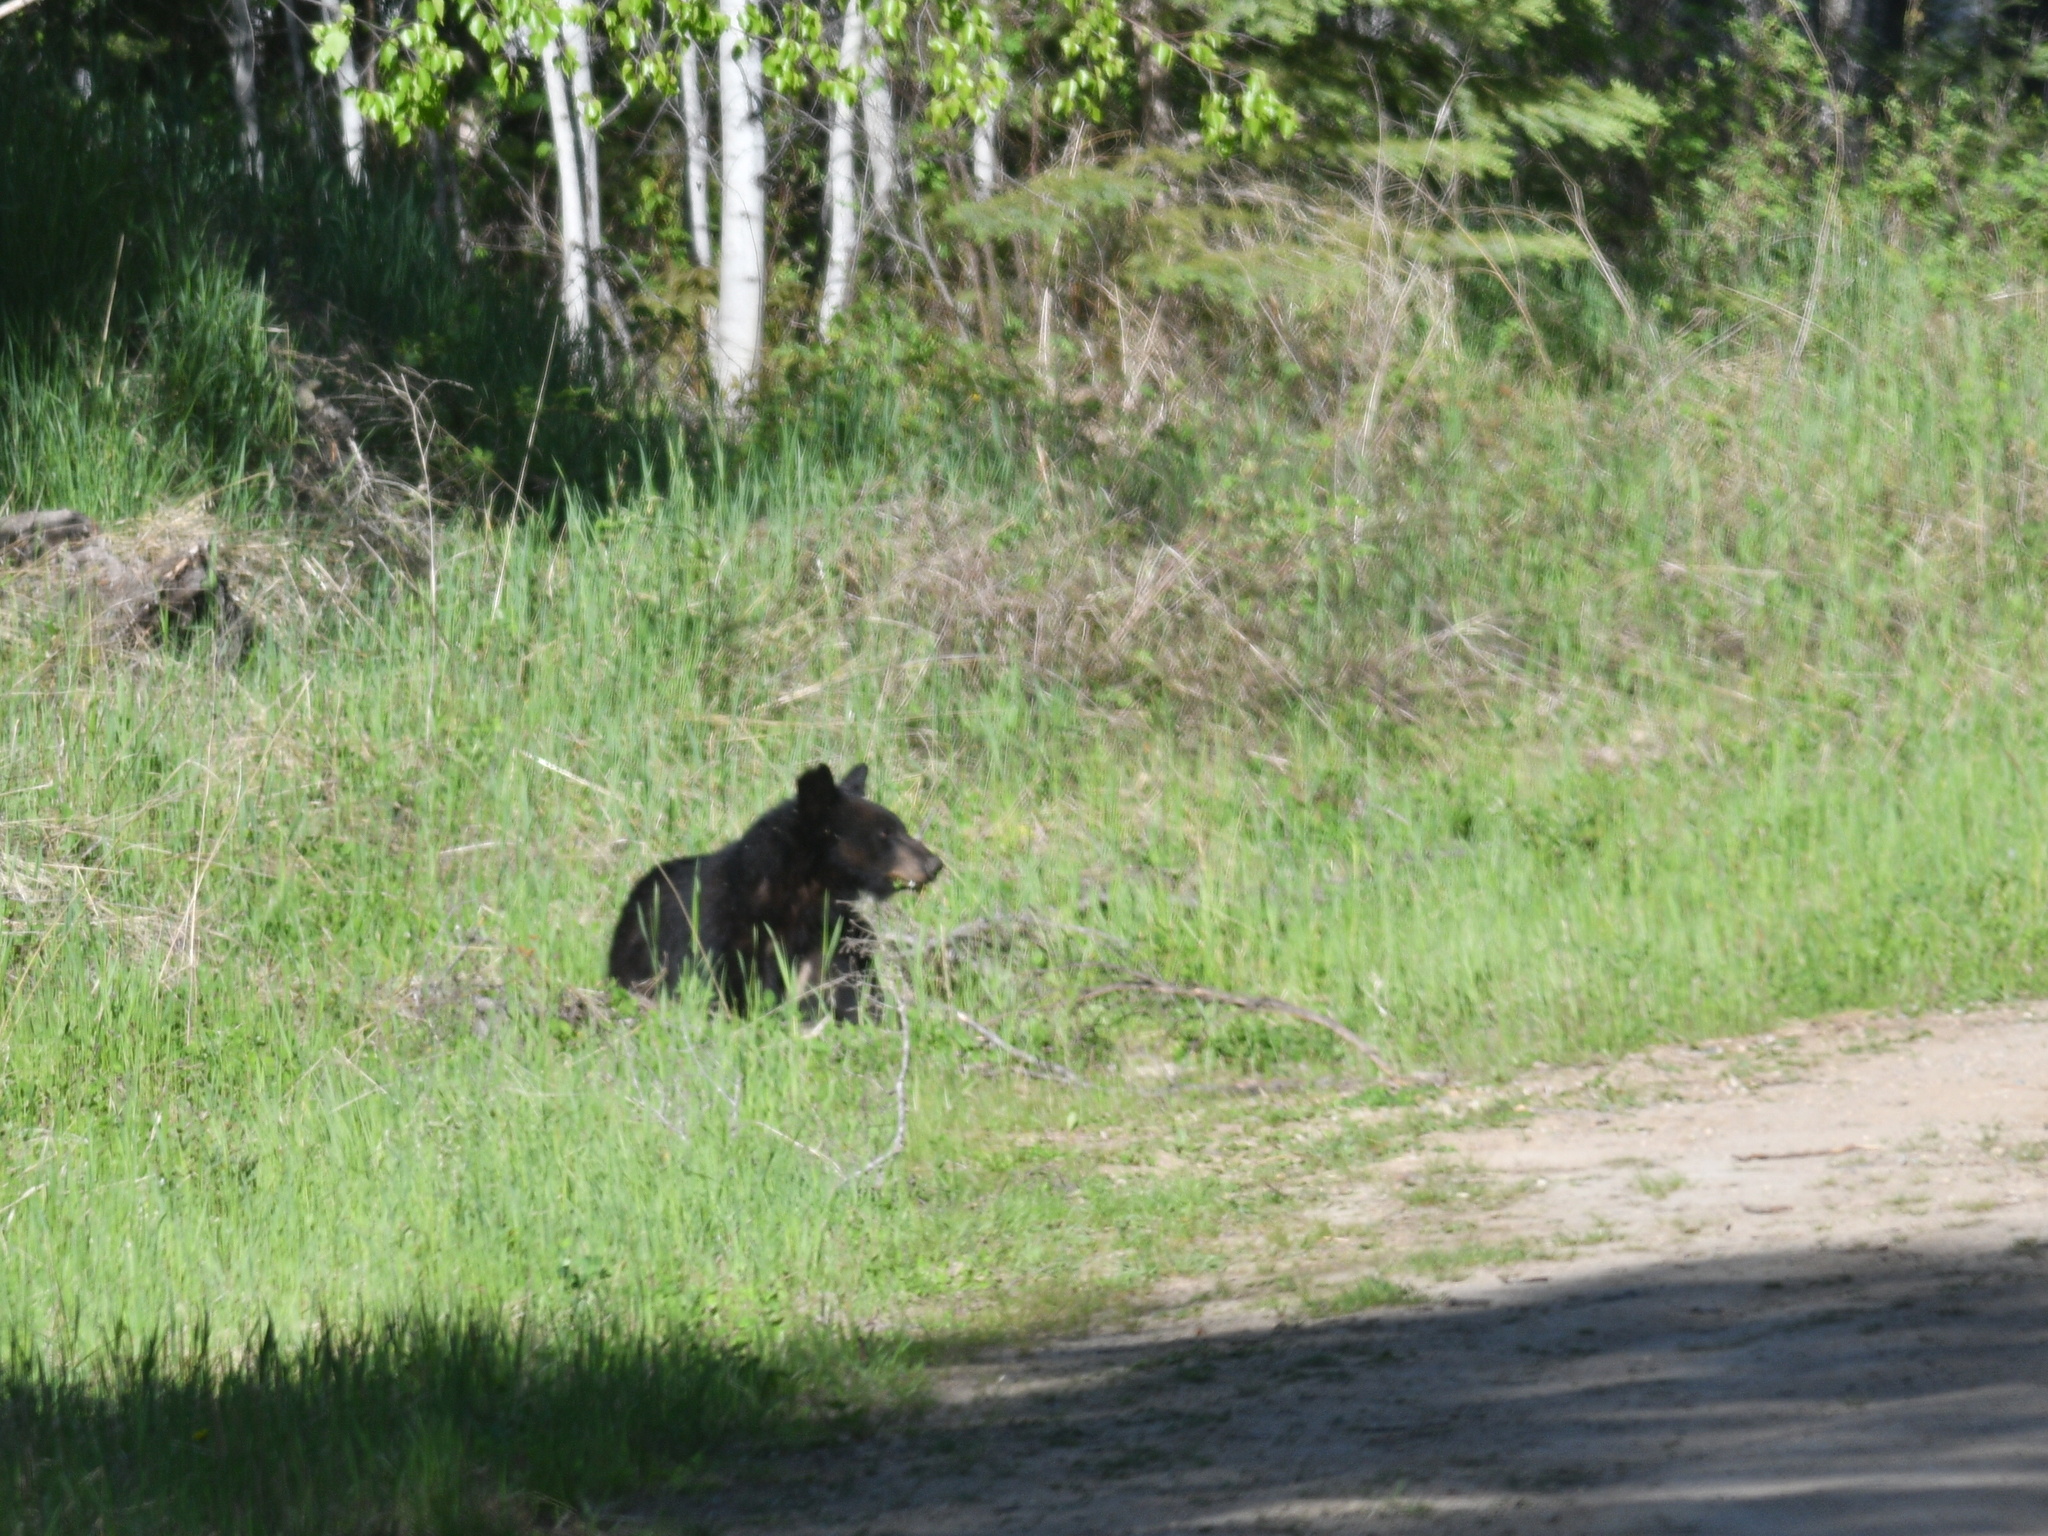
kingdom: Animalia
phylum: Chordata
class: Mammalia
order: Carnivora
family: Ursidae
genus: Ursus
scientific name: Ursus americanus
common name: American black bear
